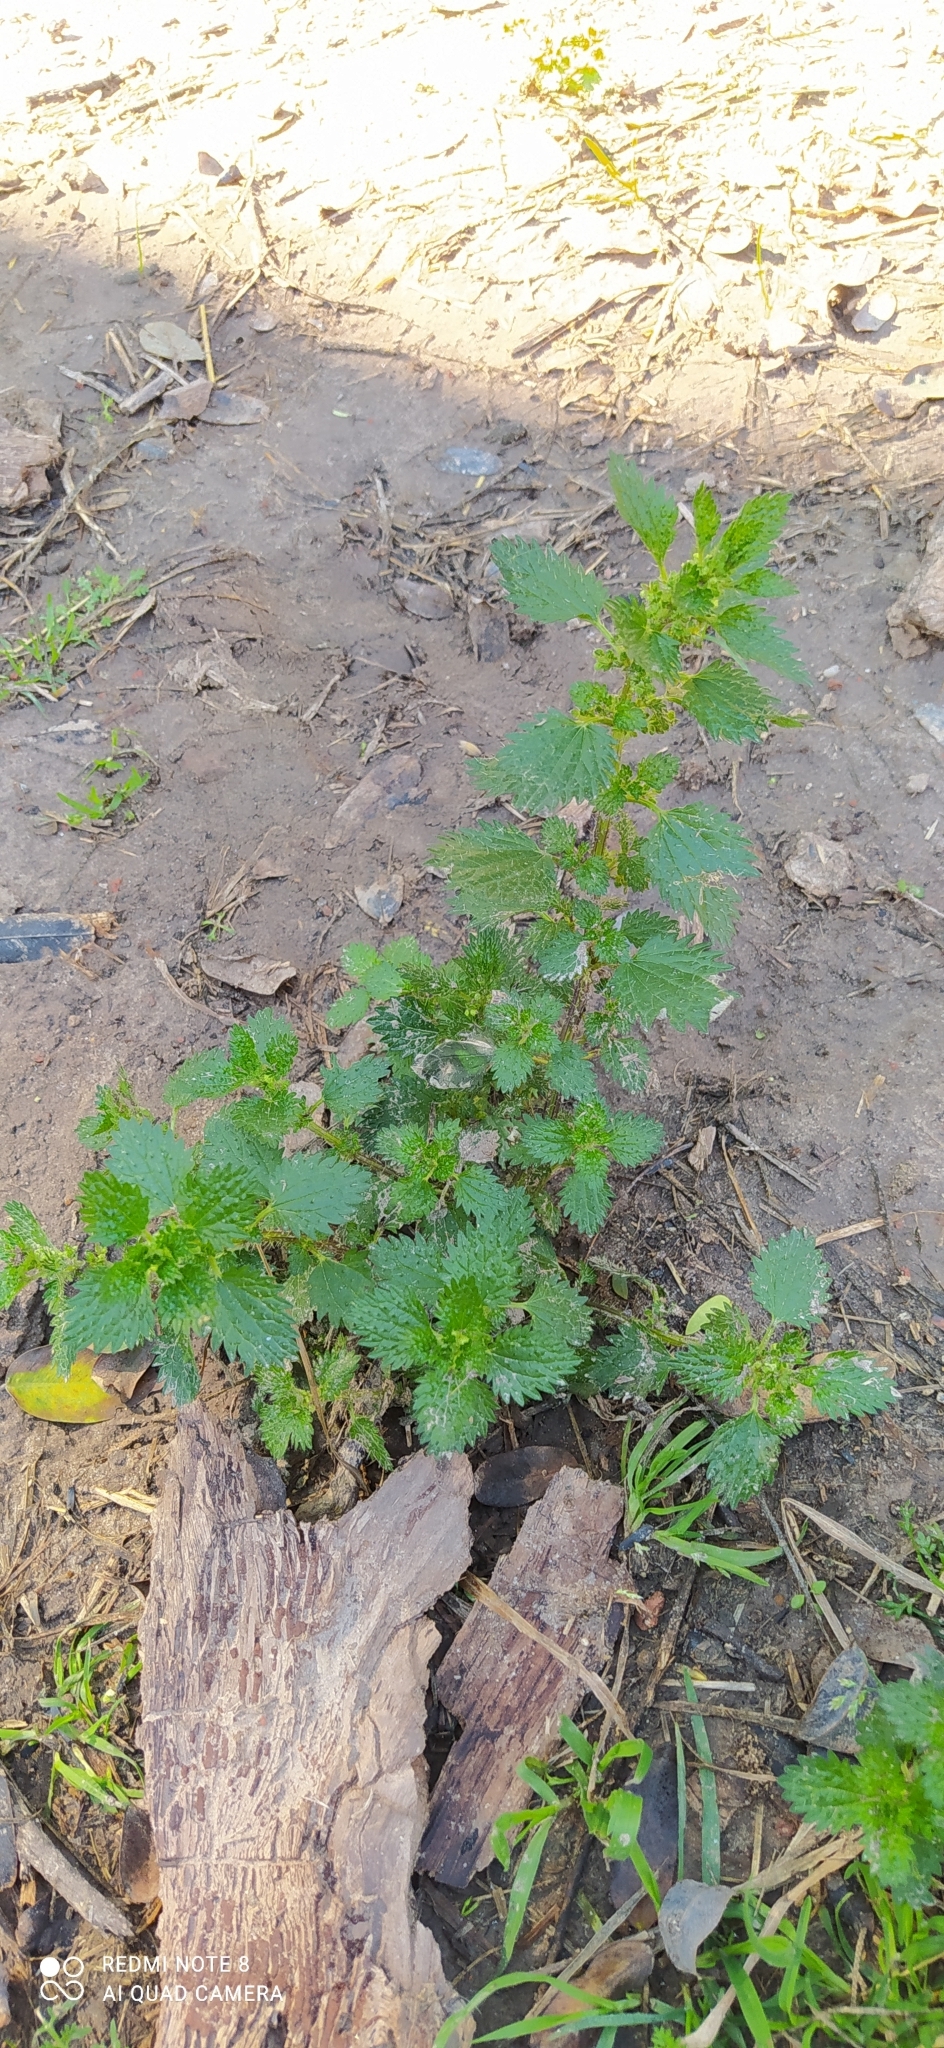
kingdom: Plantae
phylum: Tracheophyta
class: Magnoliopsida
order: Rosales
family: Urticaceae
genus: Urtica
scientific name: Urtica urens
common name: Dwarf nettle
